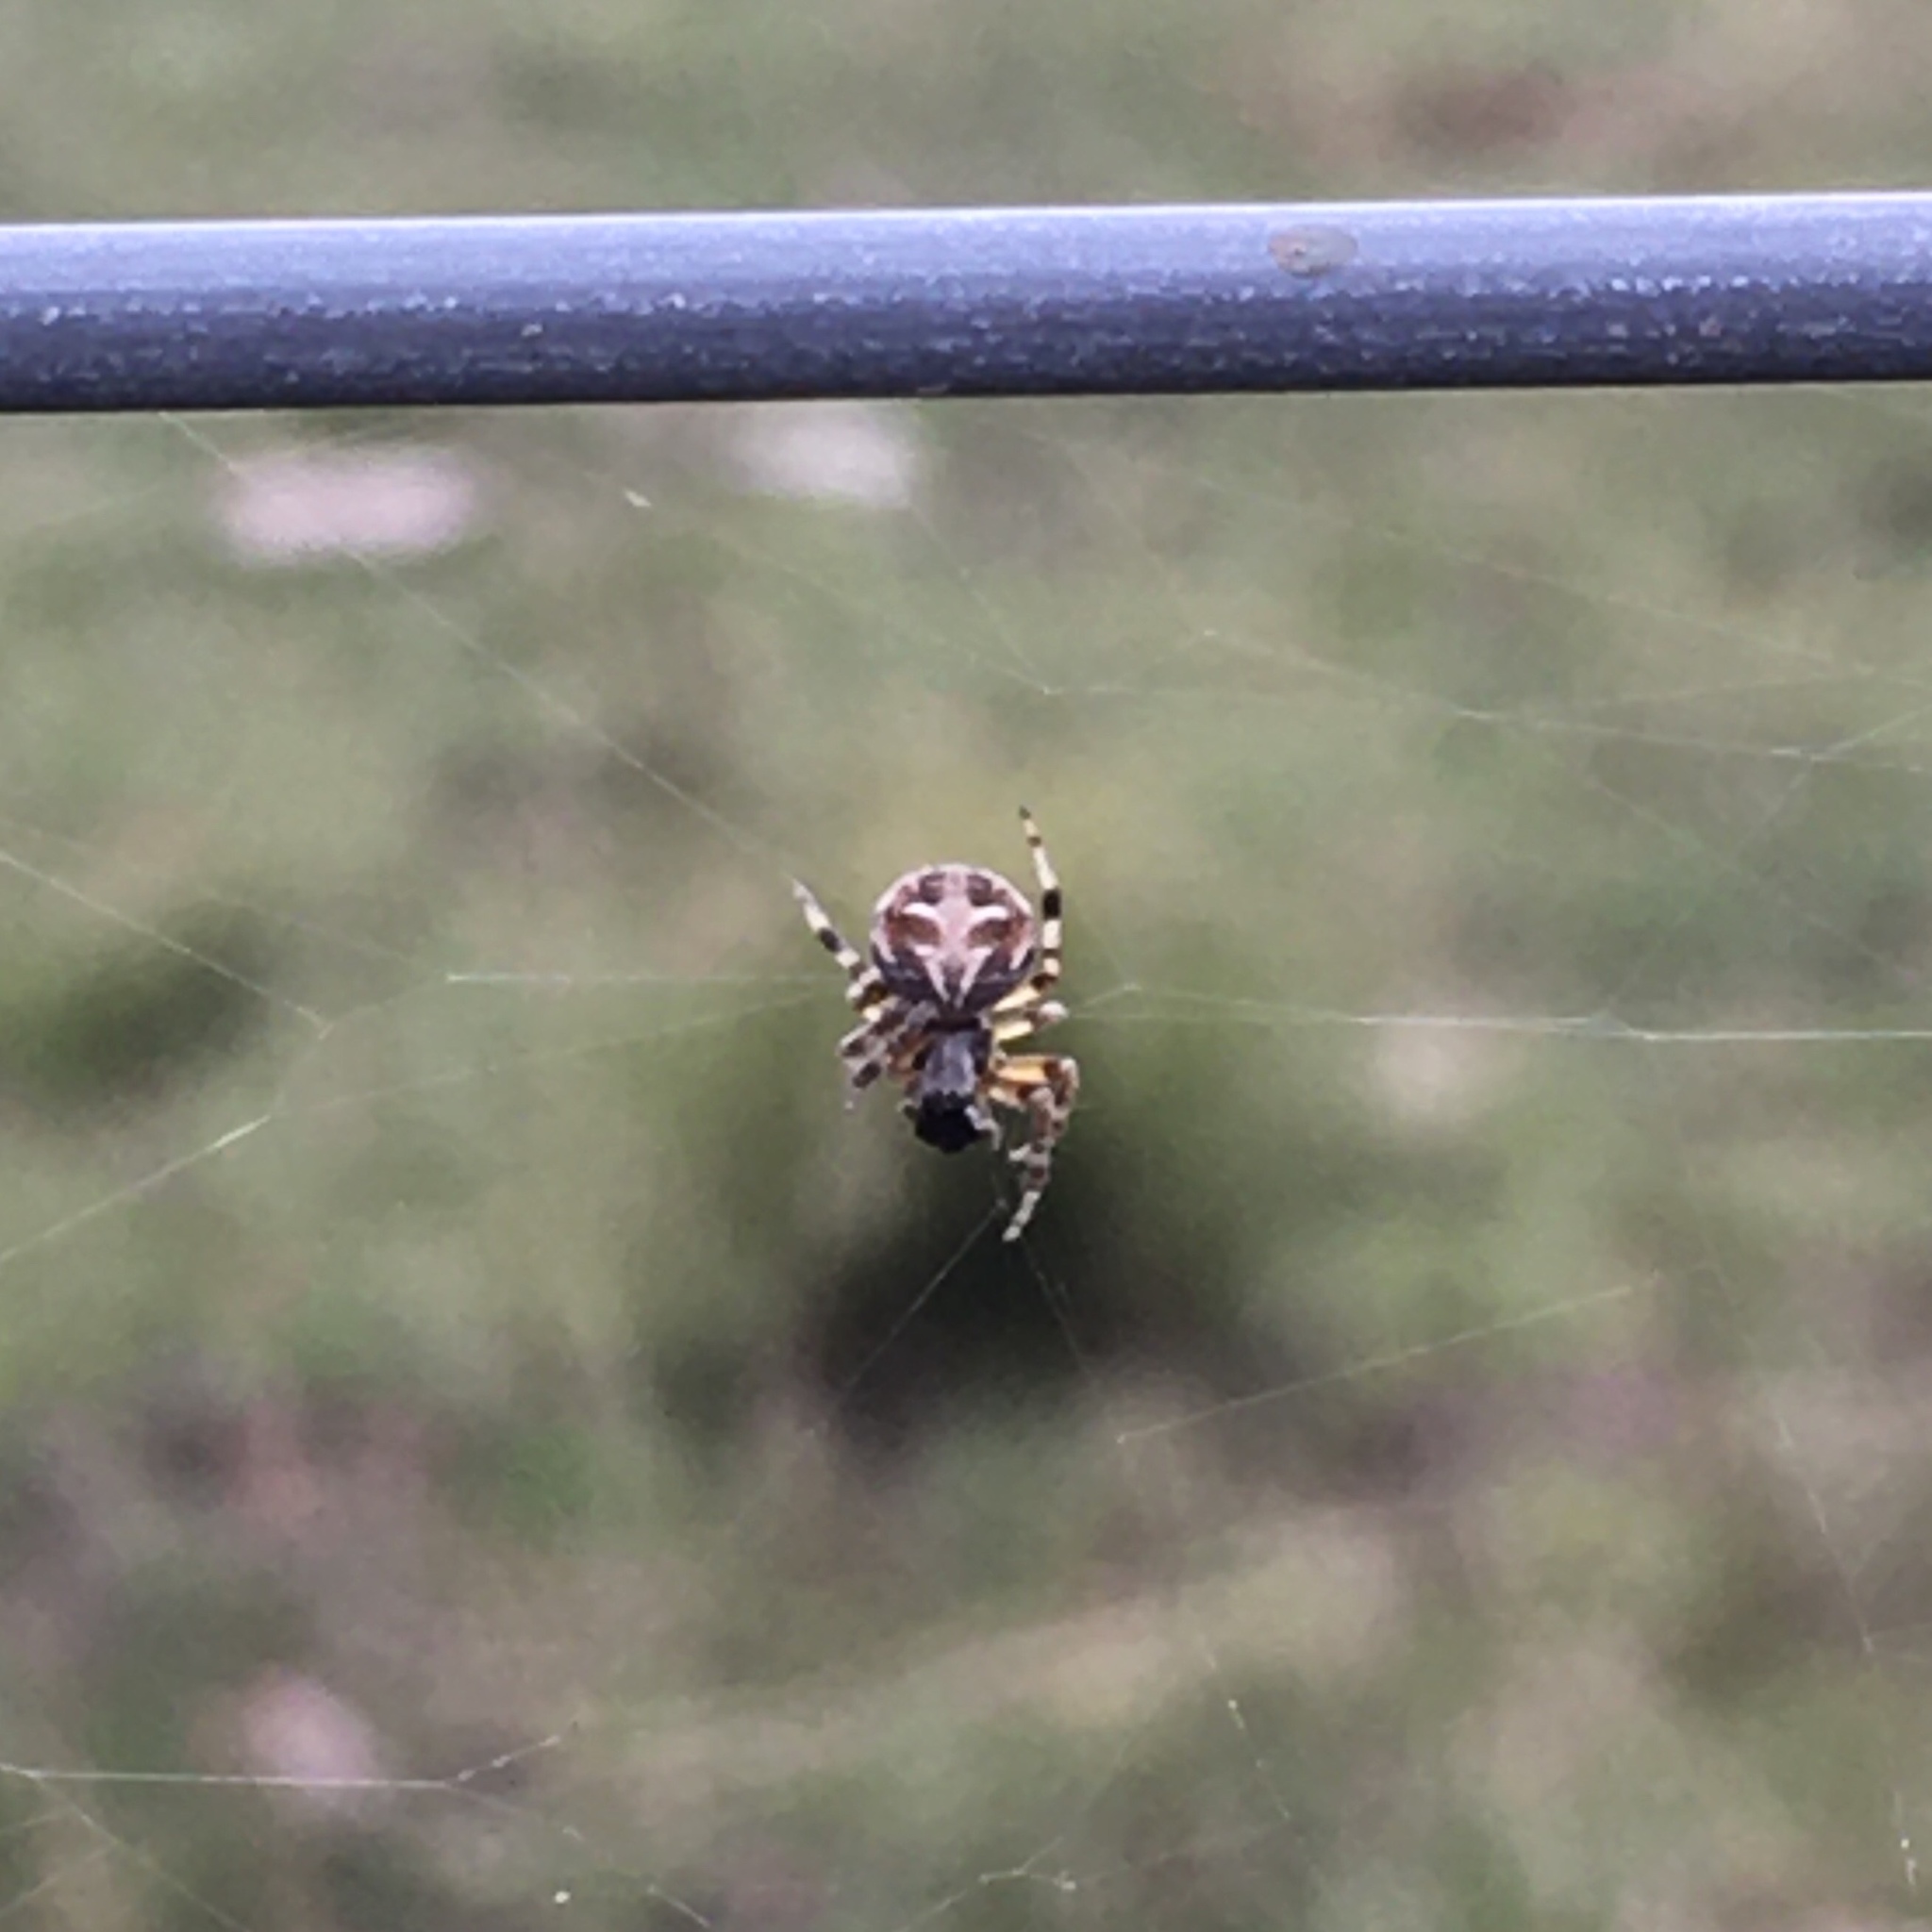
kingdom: Animalia
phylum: Arthropoda
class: Arachnida
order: Araneae
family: Araneidae
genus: Metepeira
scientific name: Metepeira
